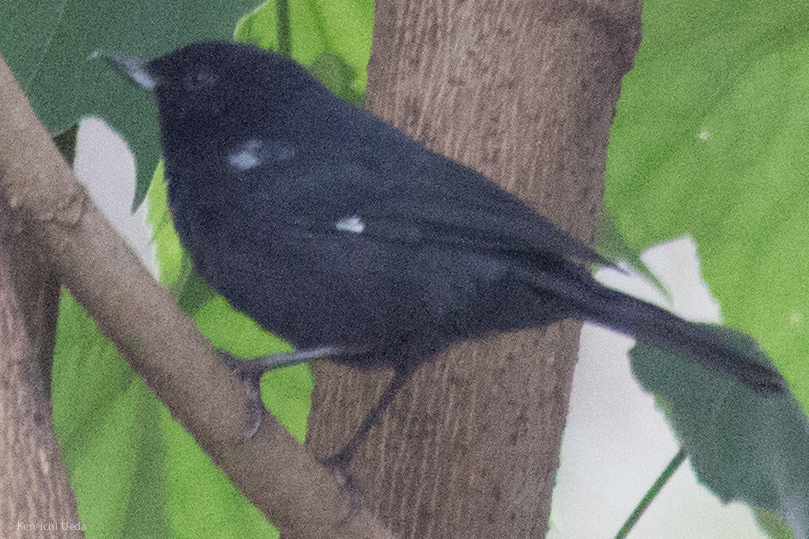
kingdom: Animalia
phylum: Chordata
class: Aves
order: Passeriformes
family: Thraupidae
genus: Diglossa
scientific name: Diglossa humeralis
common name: Black flowerpiercer
